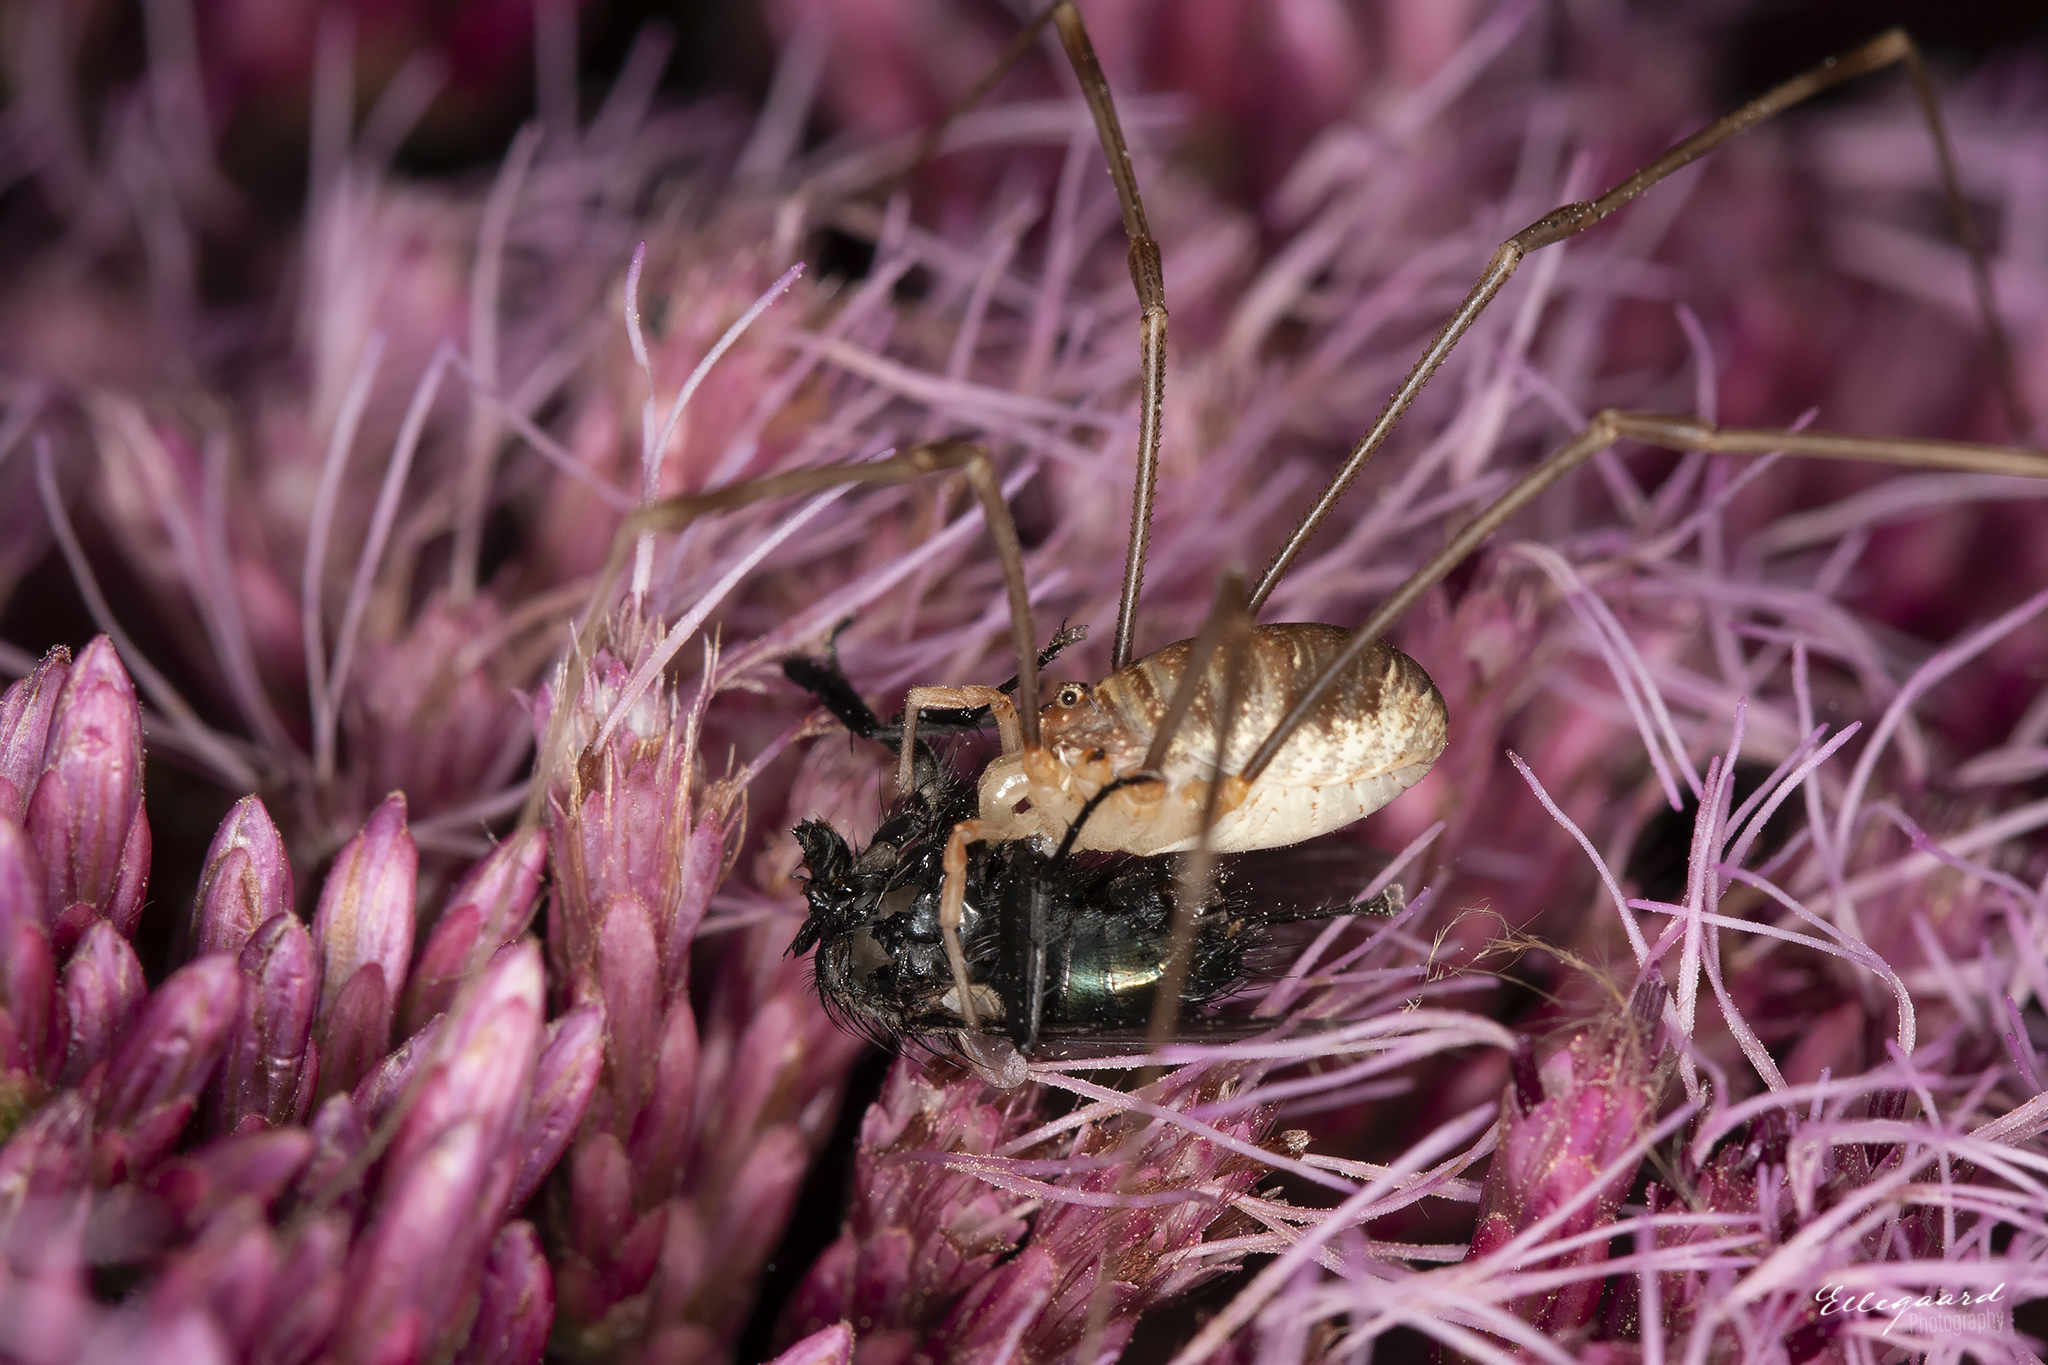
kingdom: Animalia
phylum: Arthropoda
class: Arachnida
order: Opiliones
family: Phalangiidae
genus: Opilio
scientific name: Opilio canestrinii
